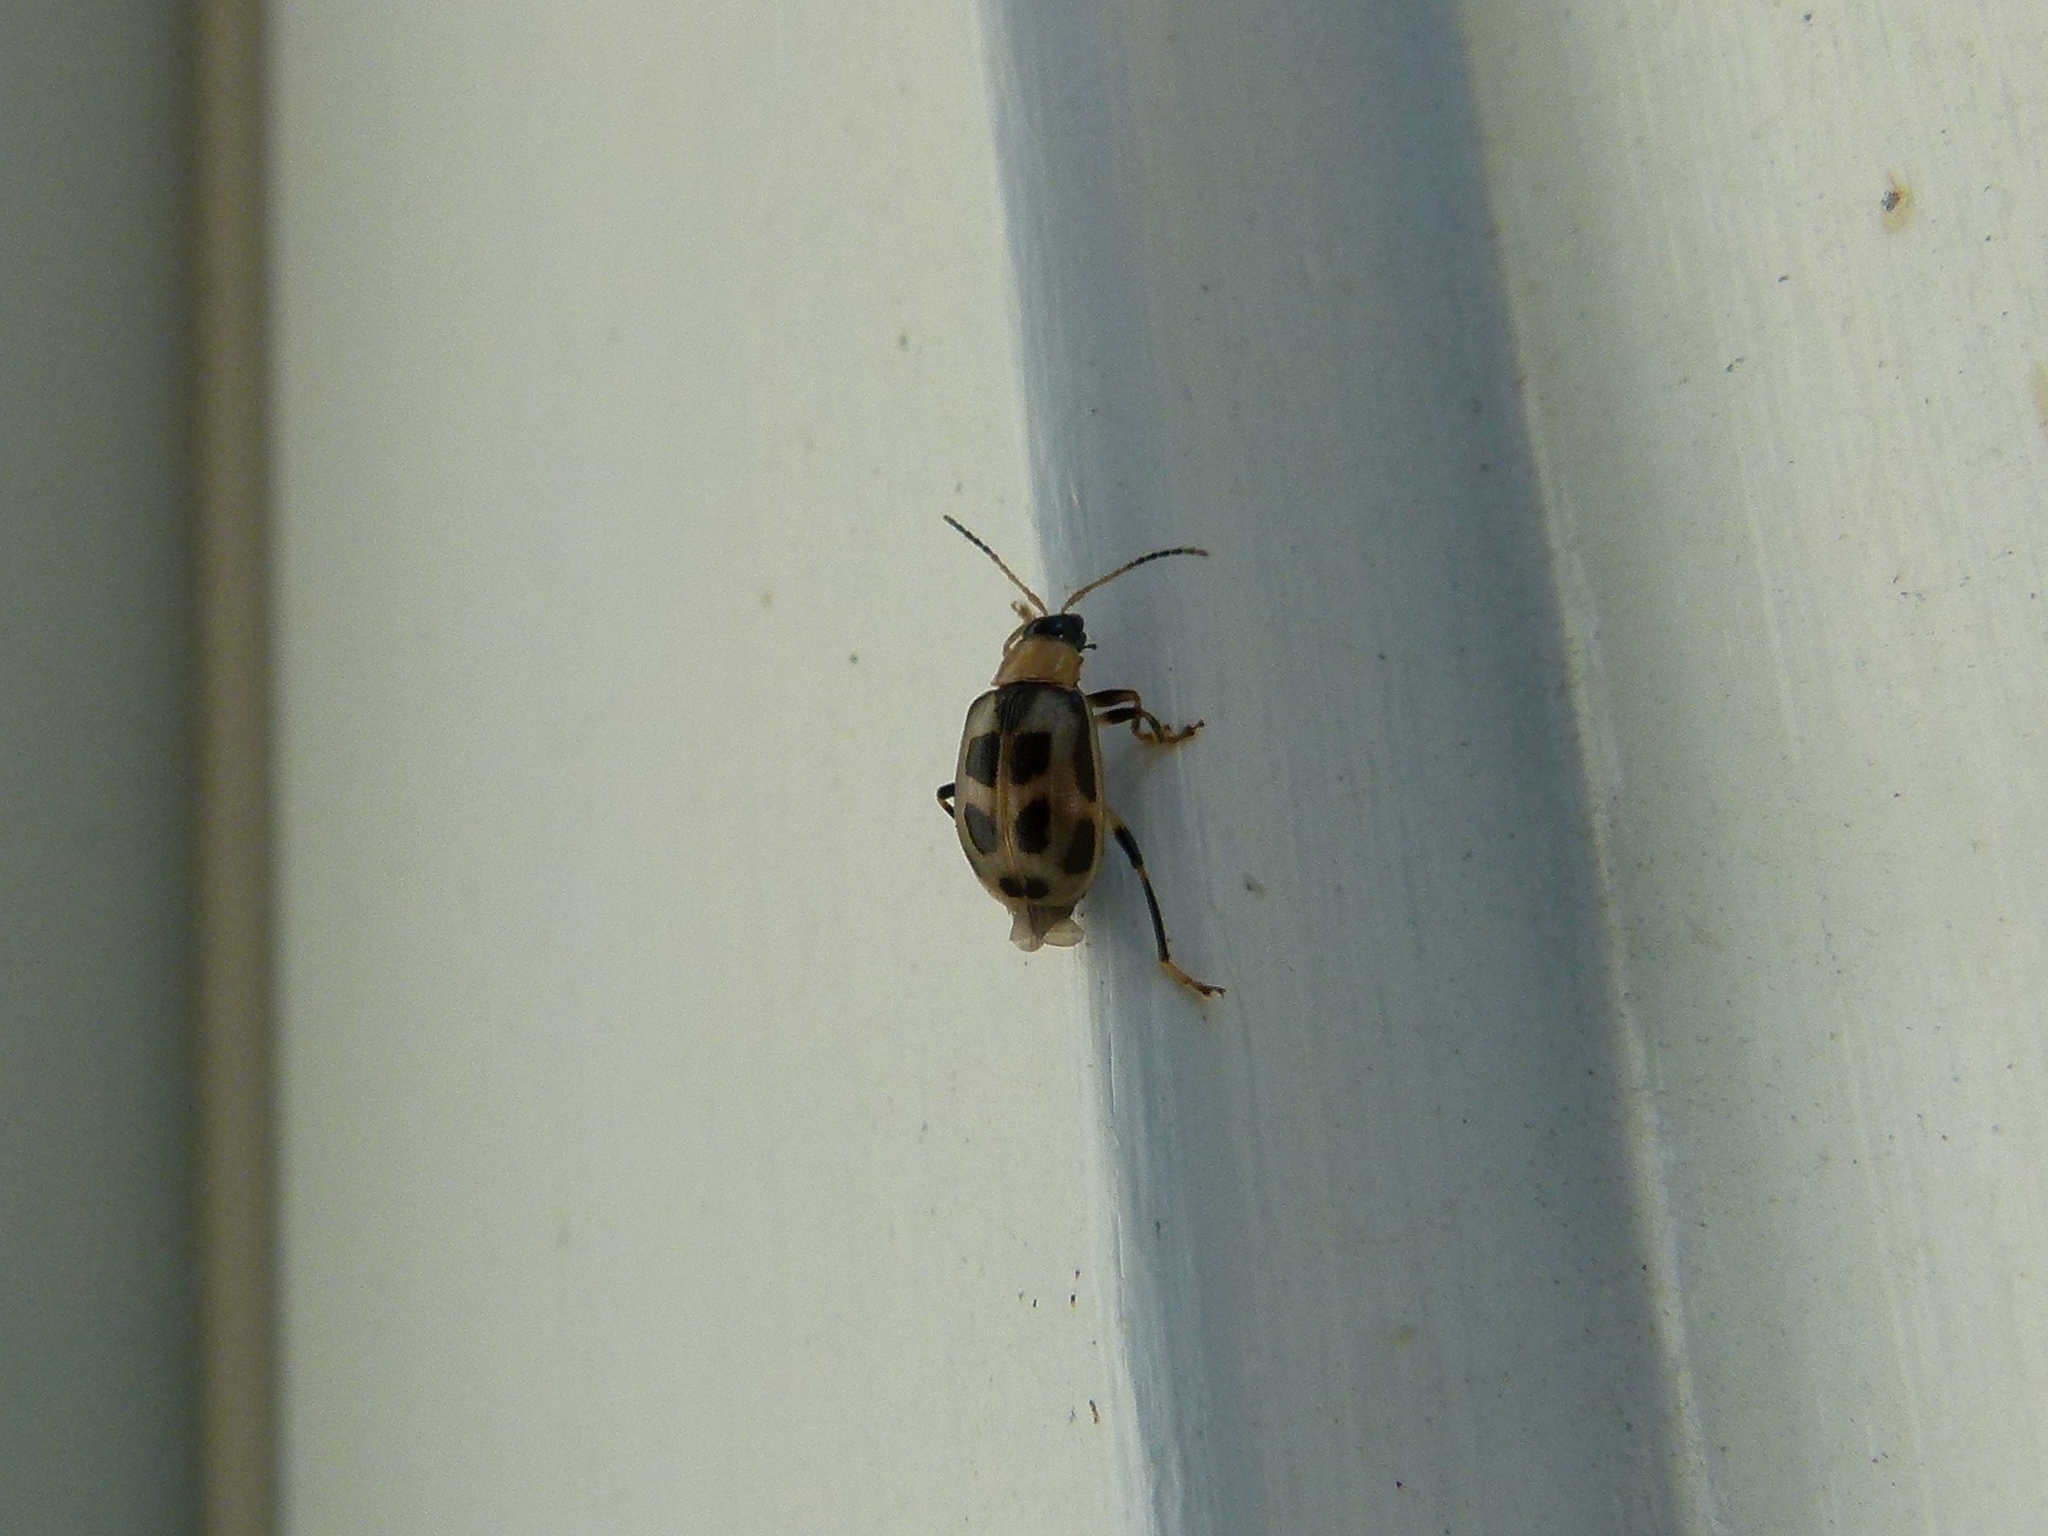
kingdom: Animalia
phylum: Arthropoda
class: Insecta
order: Coleoptera
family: Chrysomelidae
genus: Cerotoma
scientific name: Cerotoma trifurcata
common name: Bean leaf beetle
